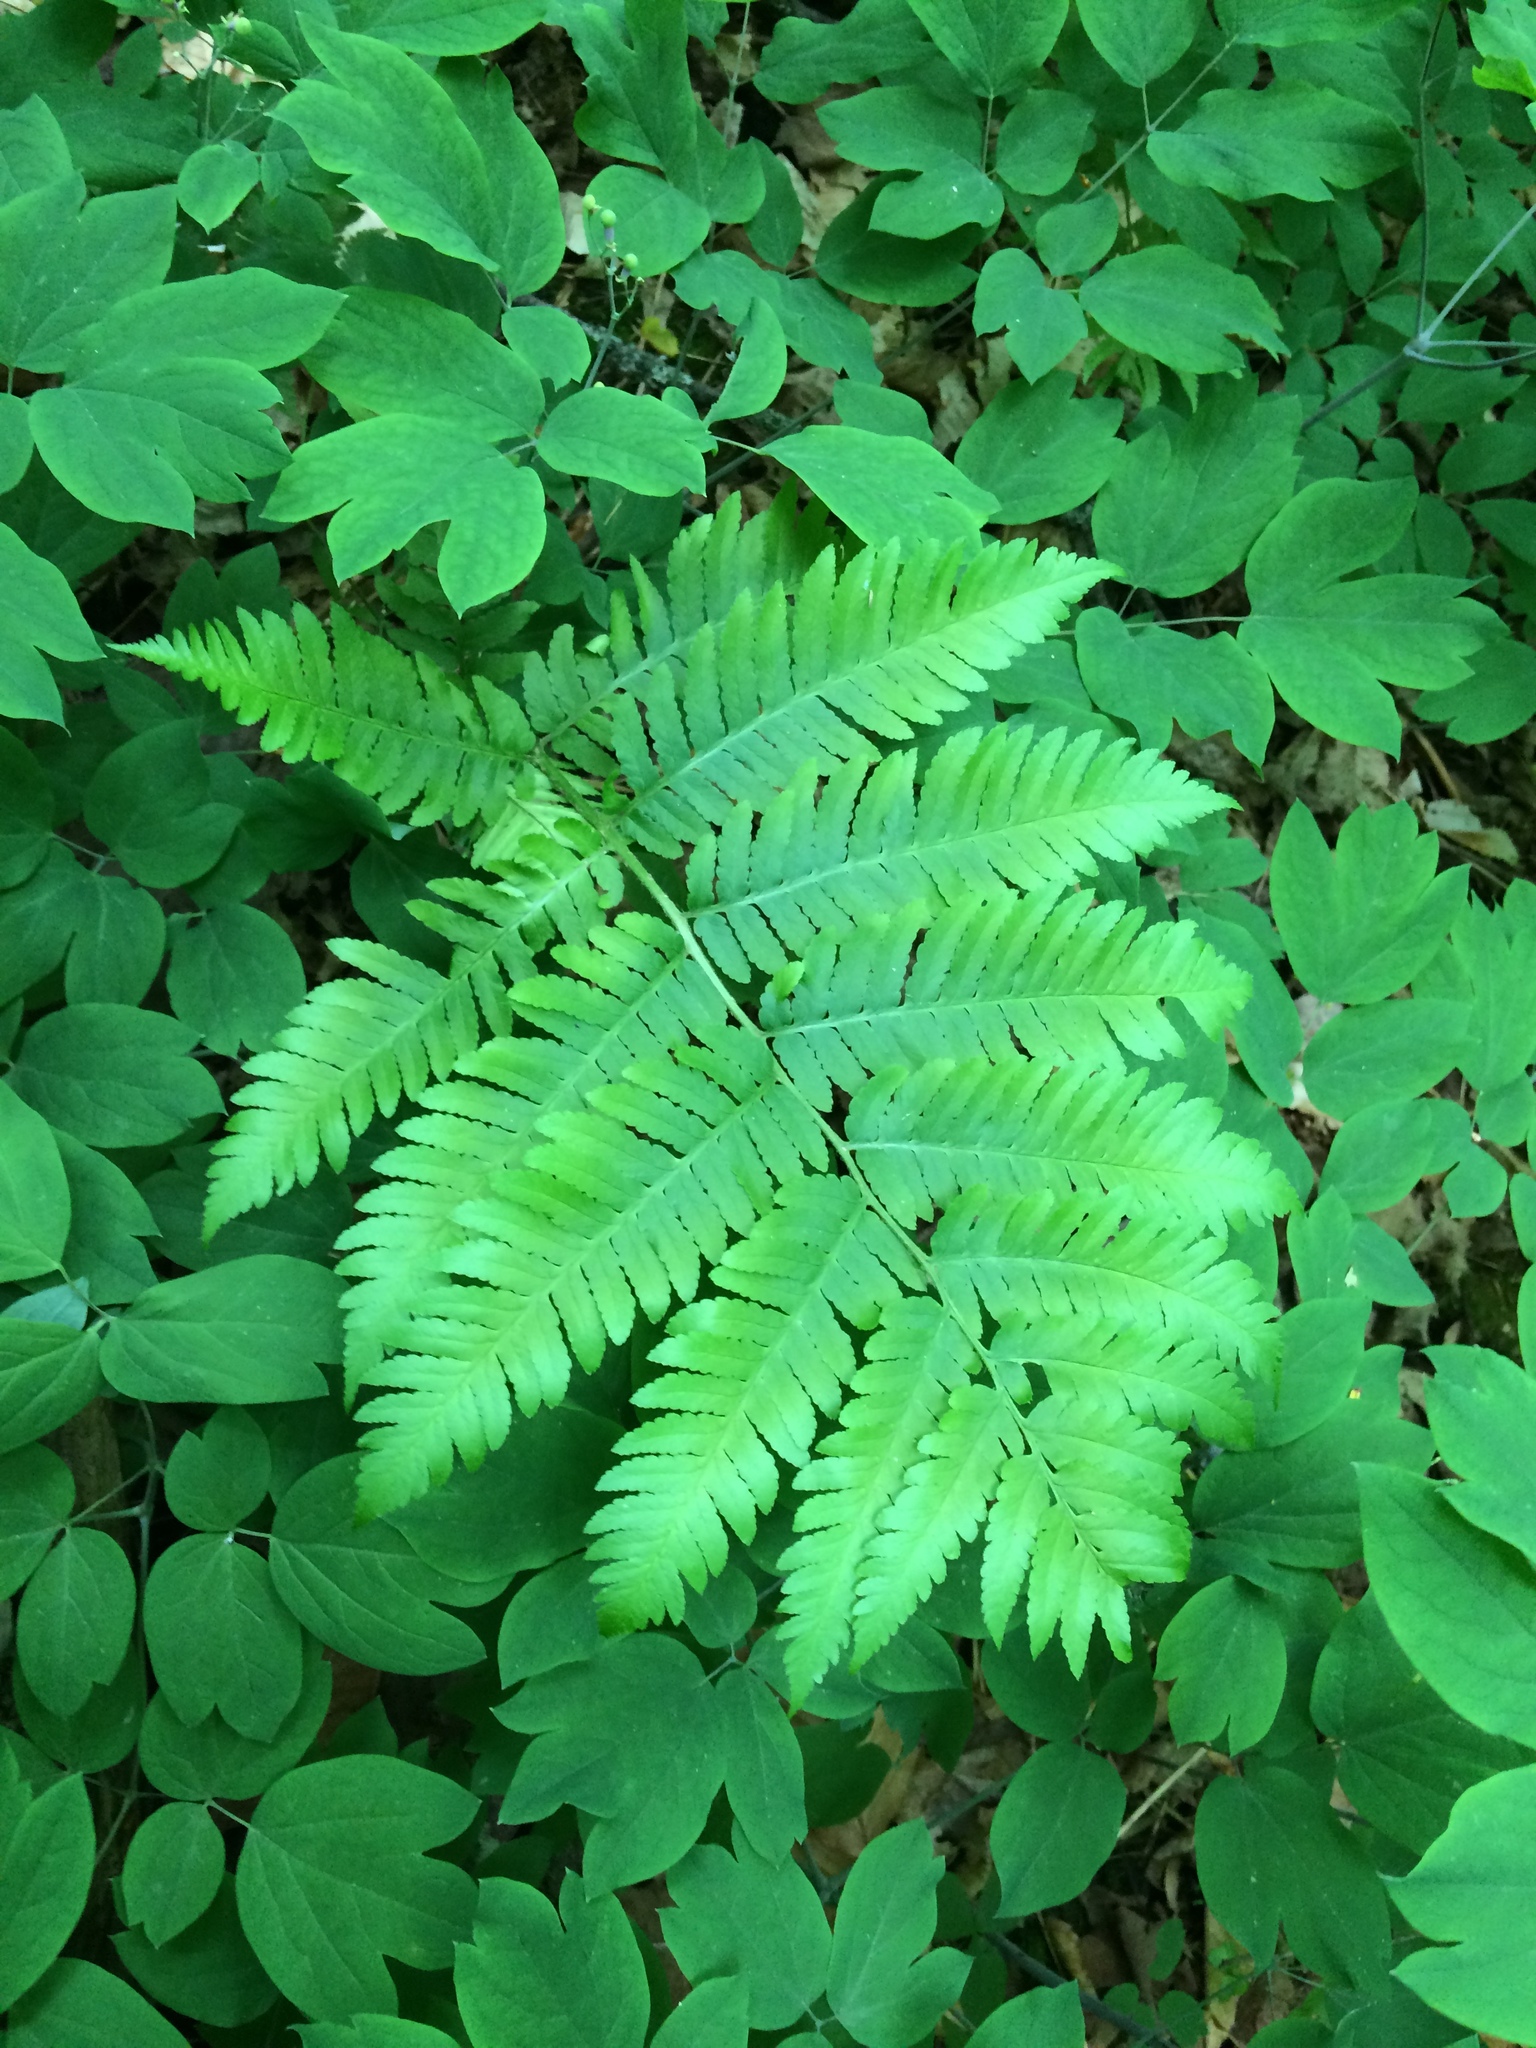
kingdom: Plantae
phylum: Tracheophyta
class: Polypodiopsida
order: Polypodiales
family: Dryopteridaceae
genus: Dryopteris
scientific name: Dryopteris goldieana
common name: Goldie's fern
